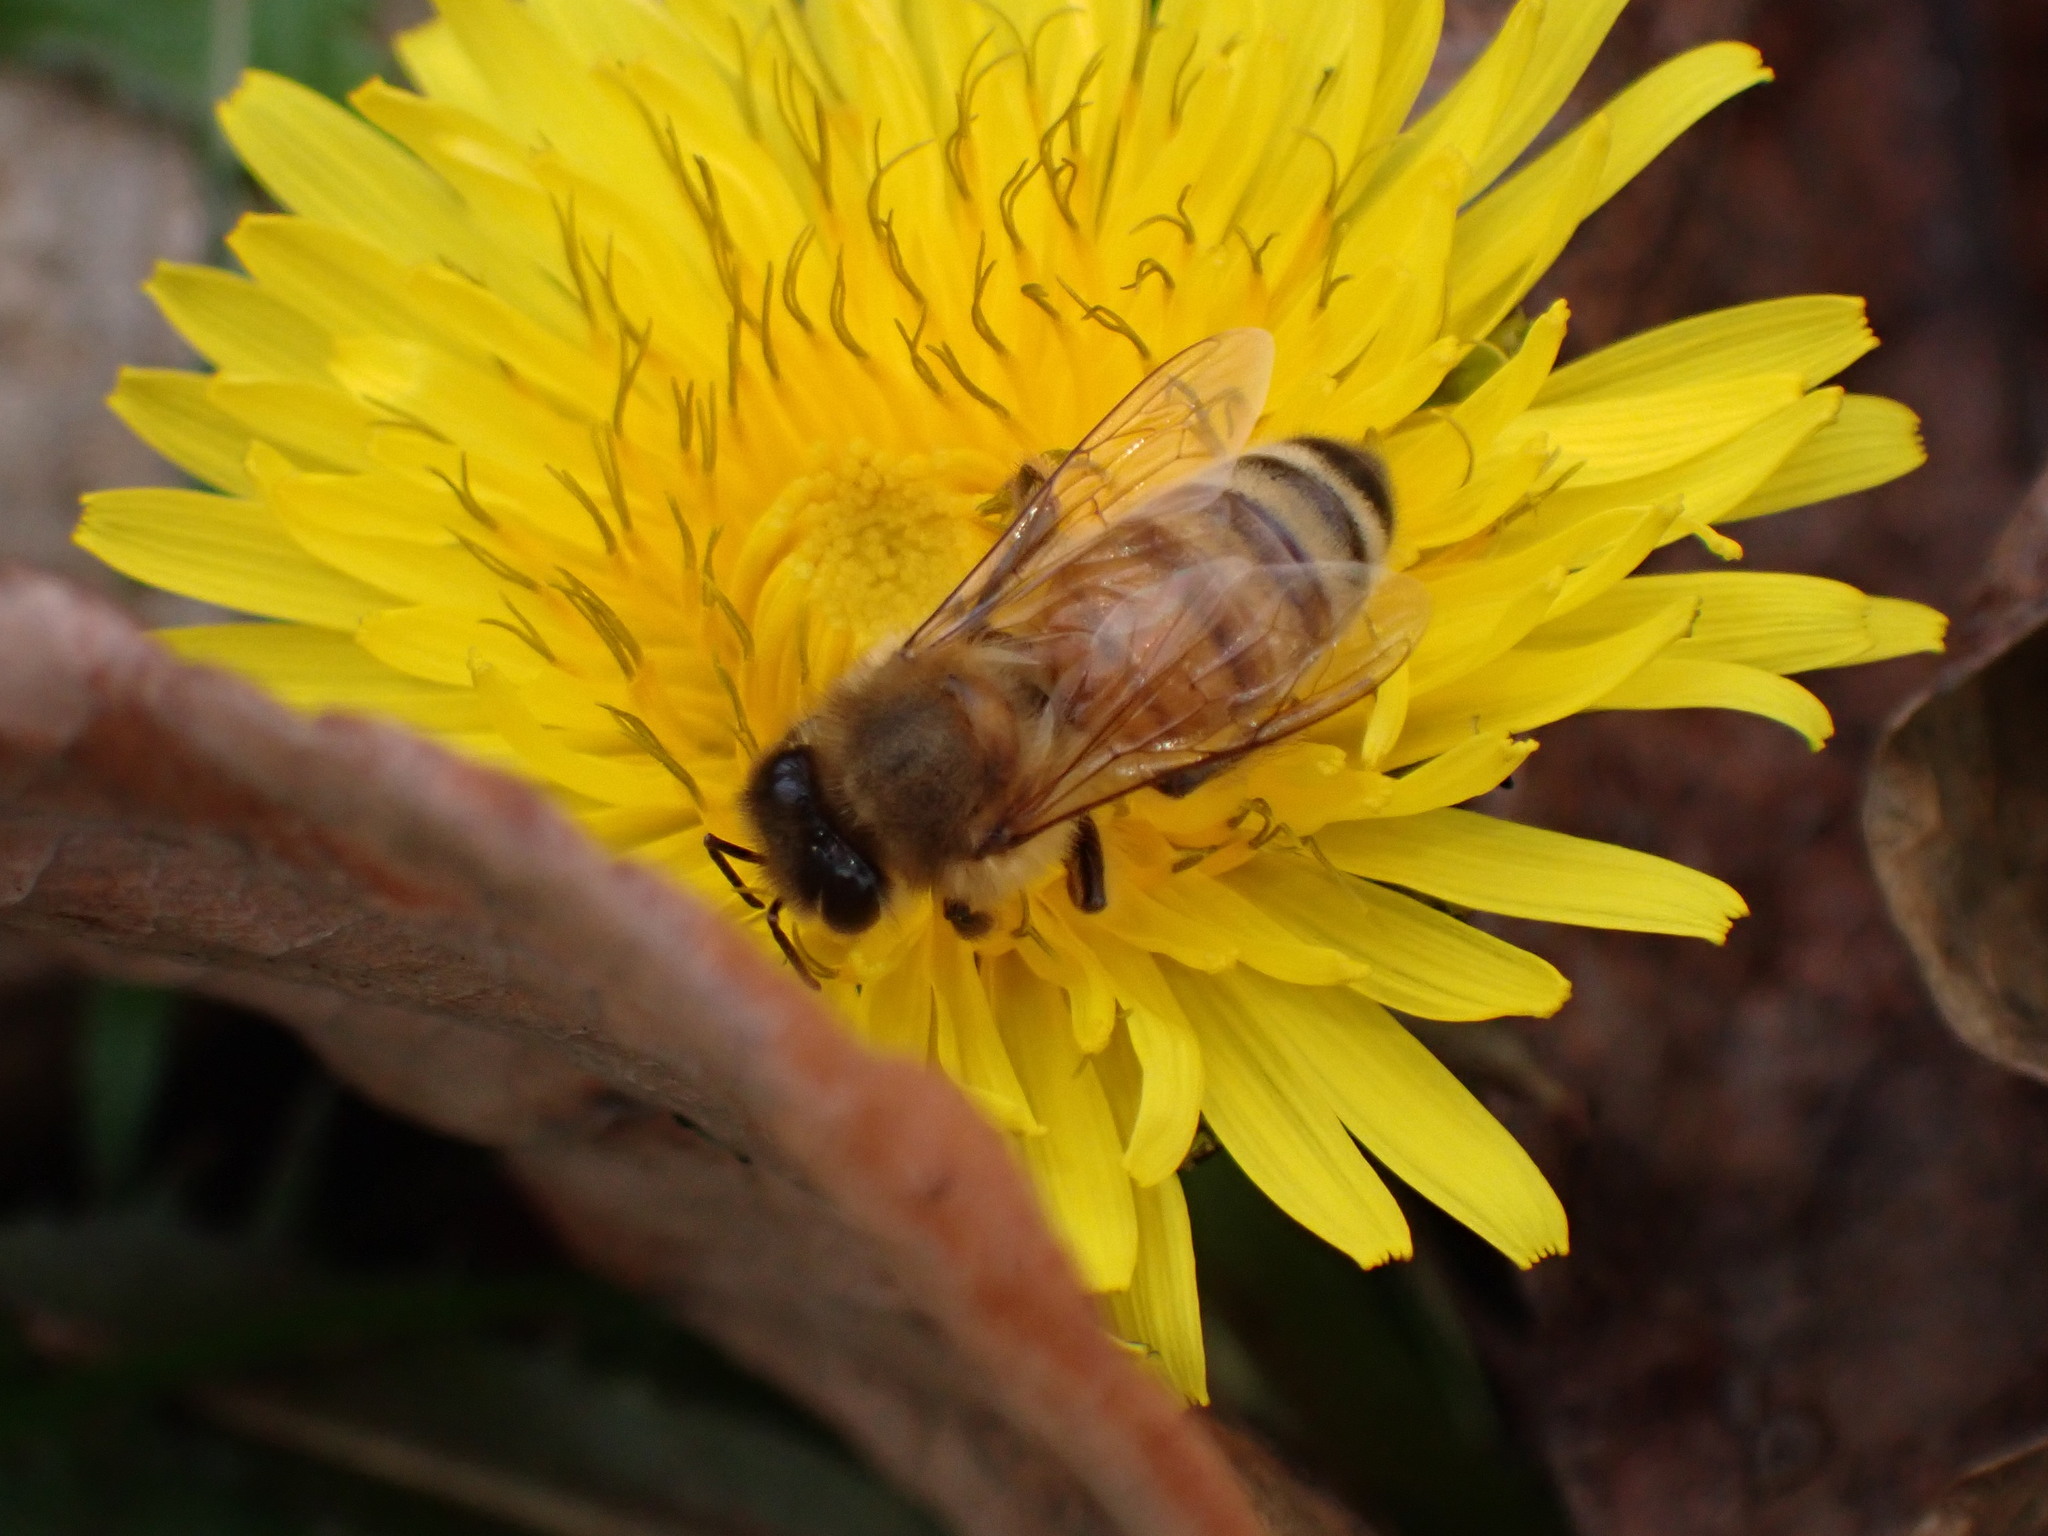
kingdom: Animalia
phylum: Arthropoda
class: Insecta
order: Hymenoptera
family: Apidae
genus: Apis
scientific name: Apis mellifera
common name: Honey bee
